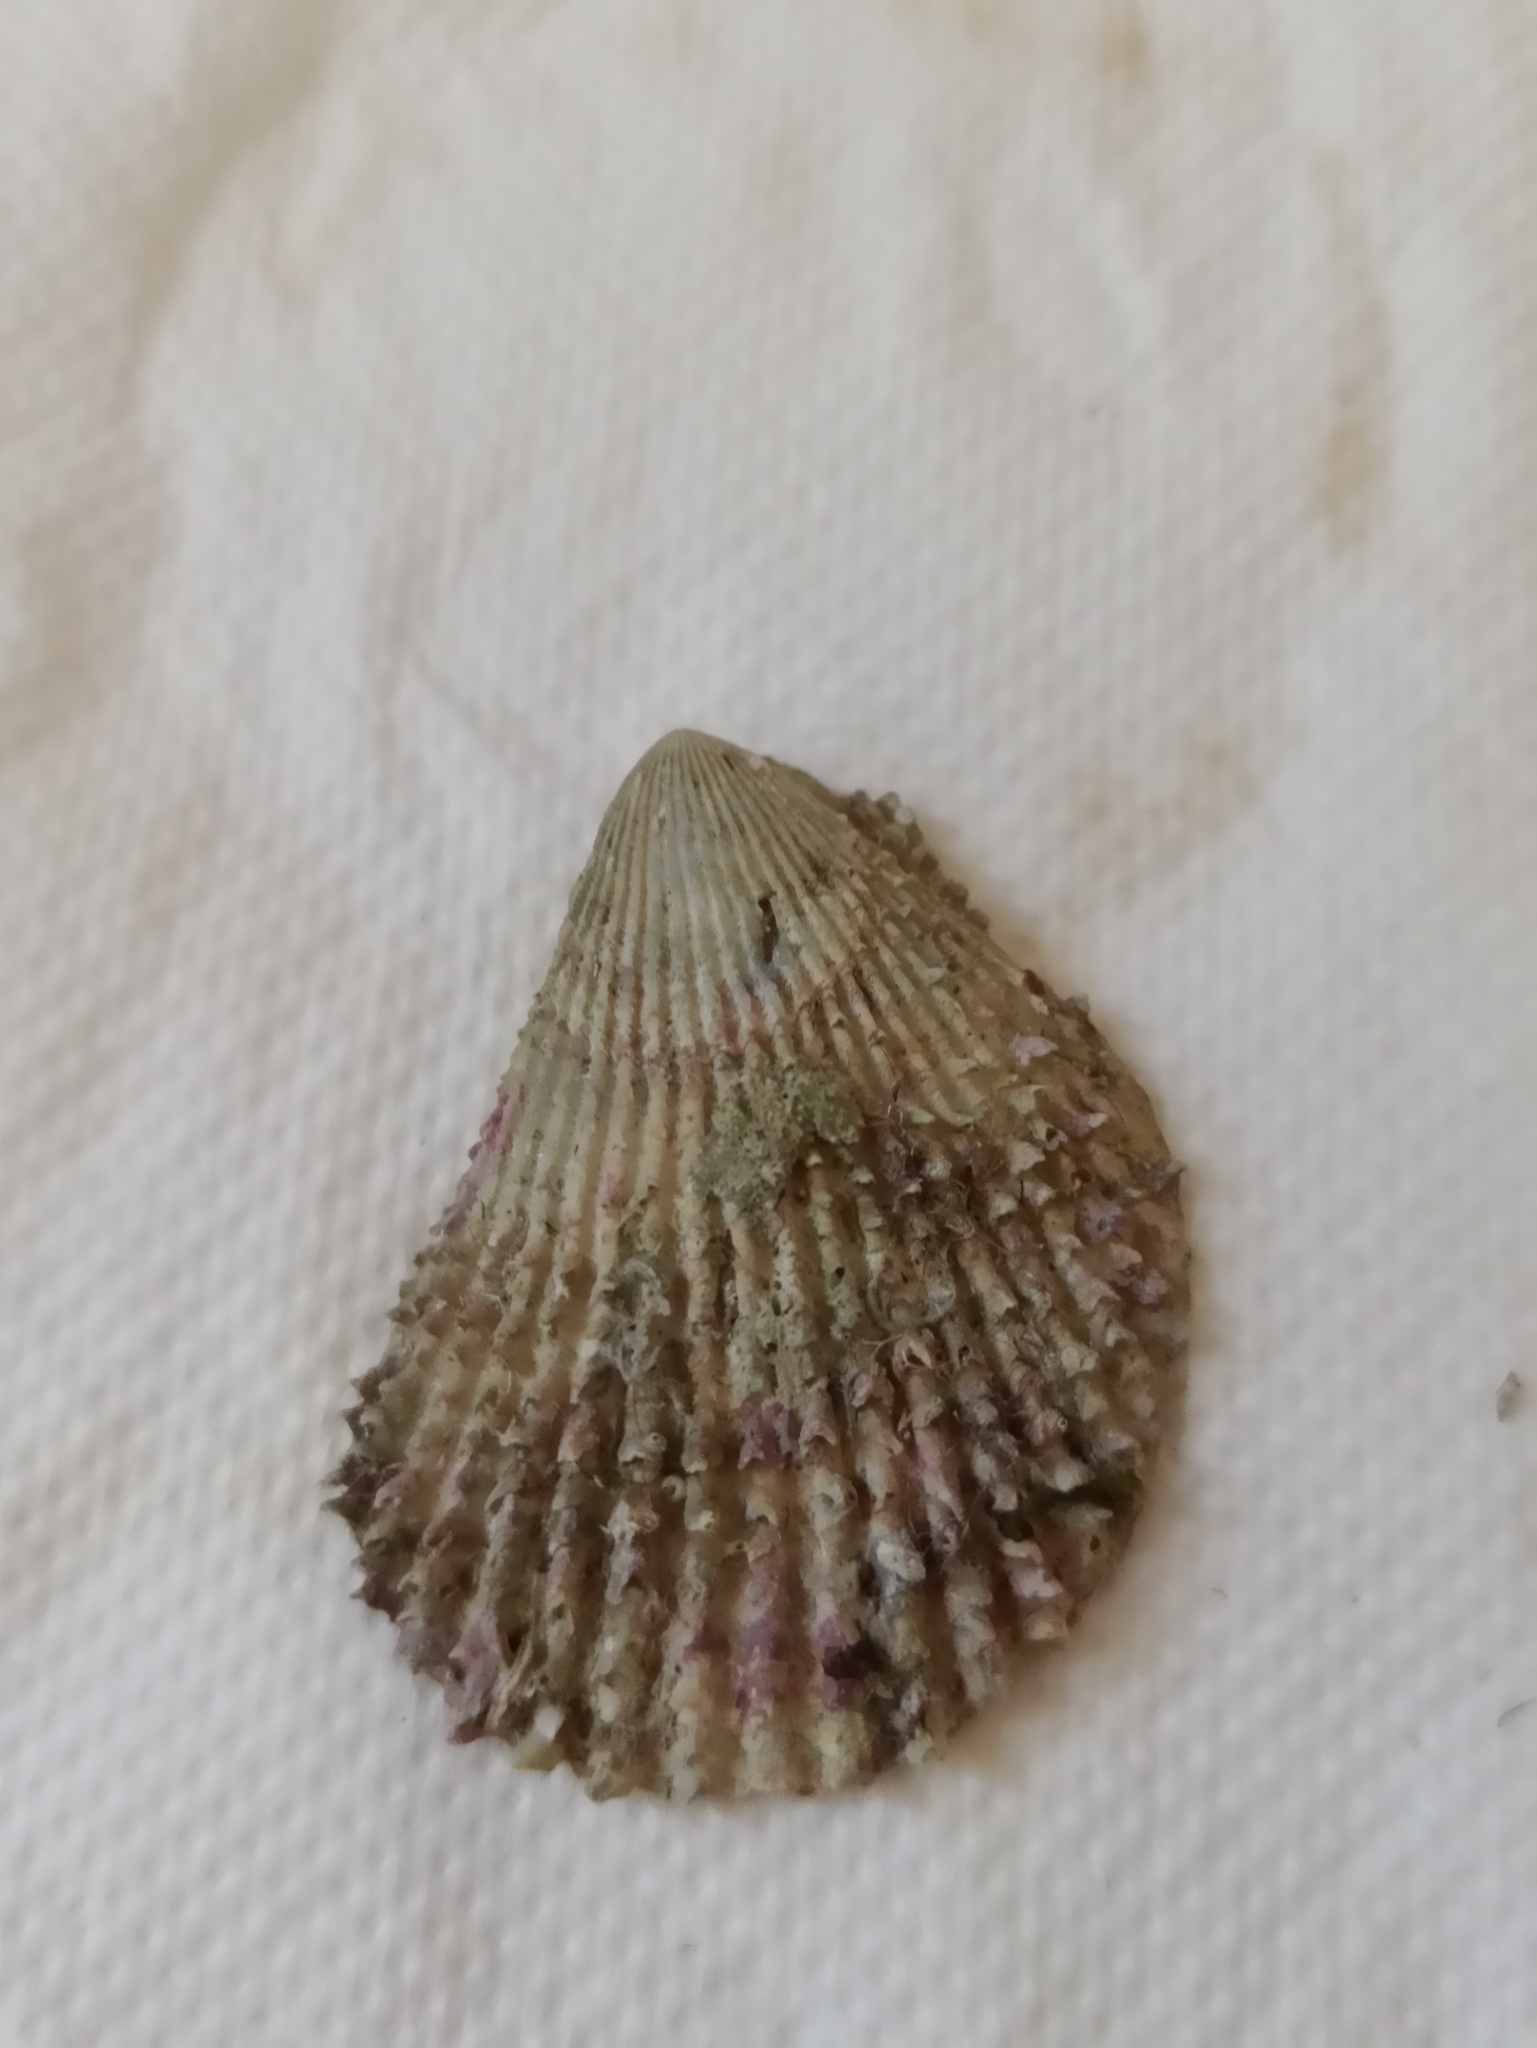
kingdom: Animalia
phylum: Mollusca
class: Bivalvia
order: Limida
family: Limidae
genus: Lima
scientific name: Lima lima
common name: Frilled file shell
